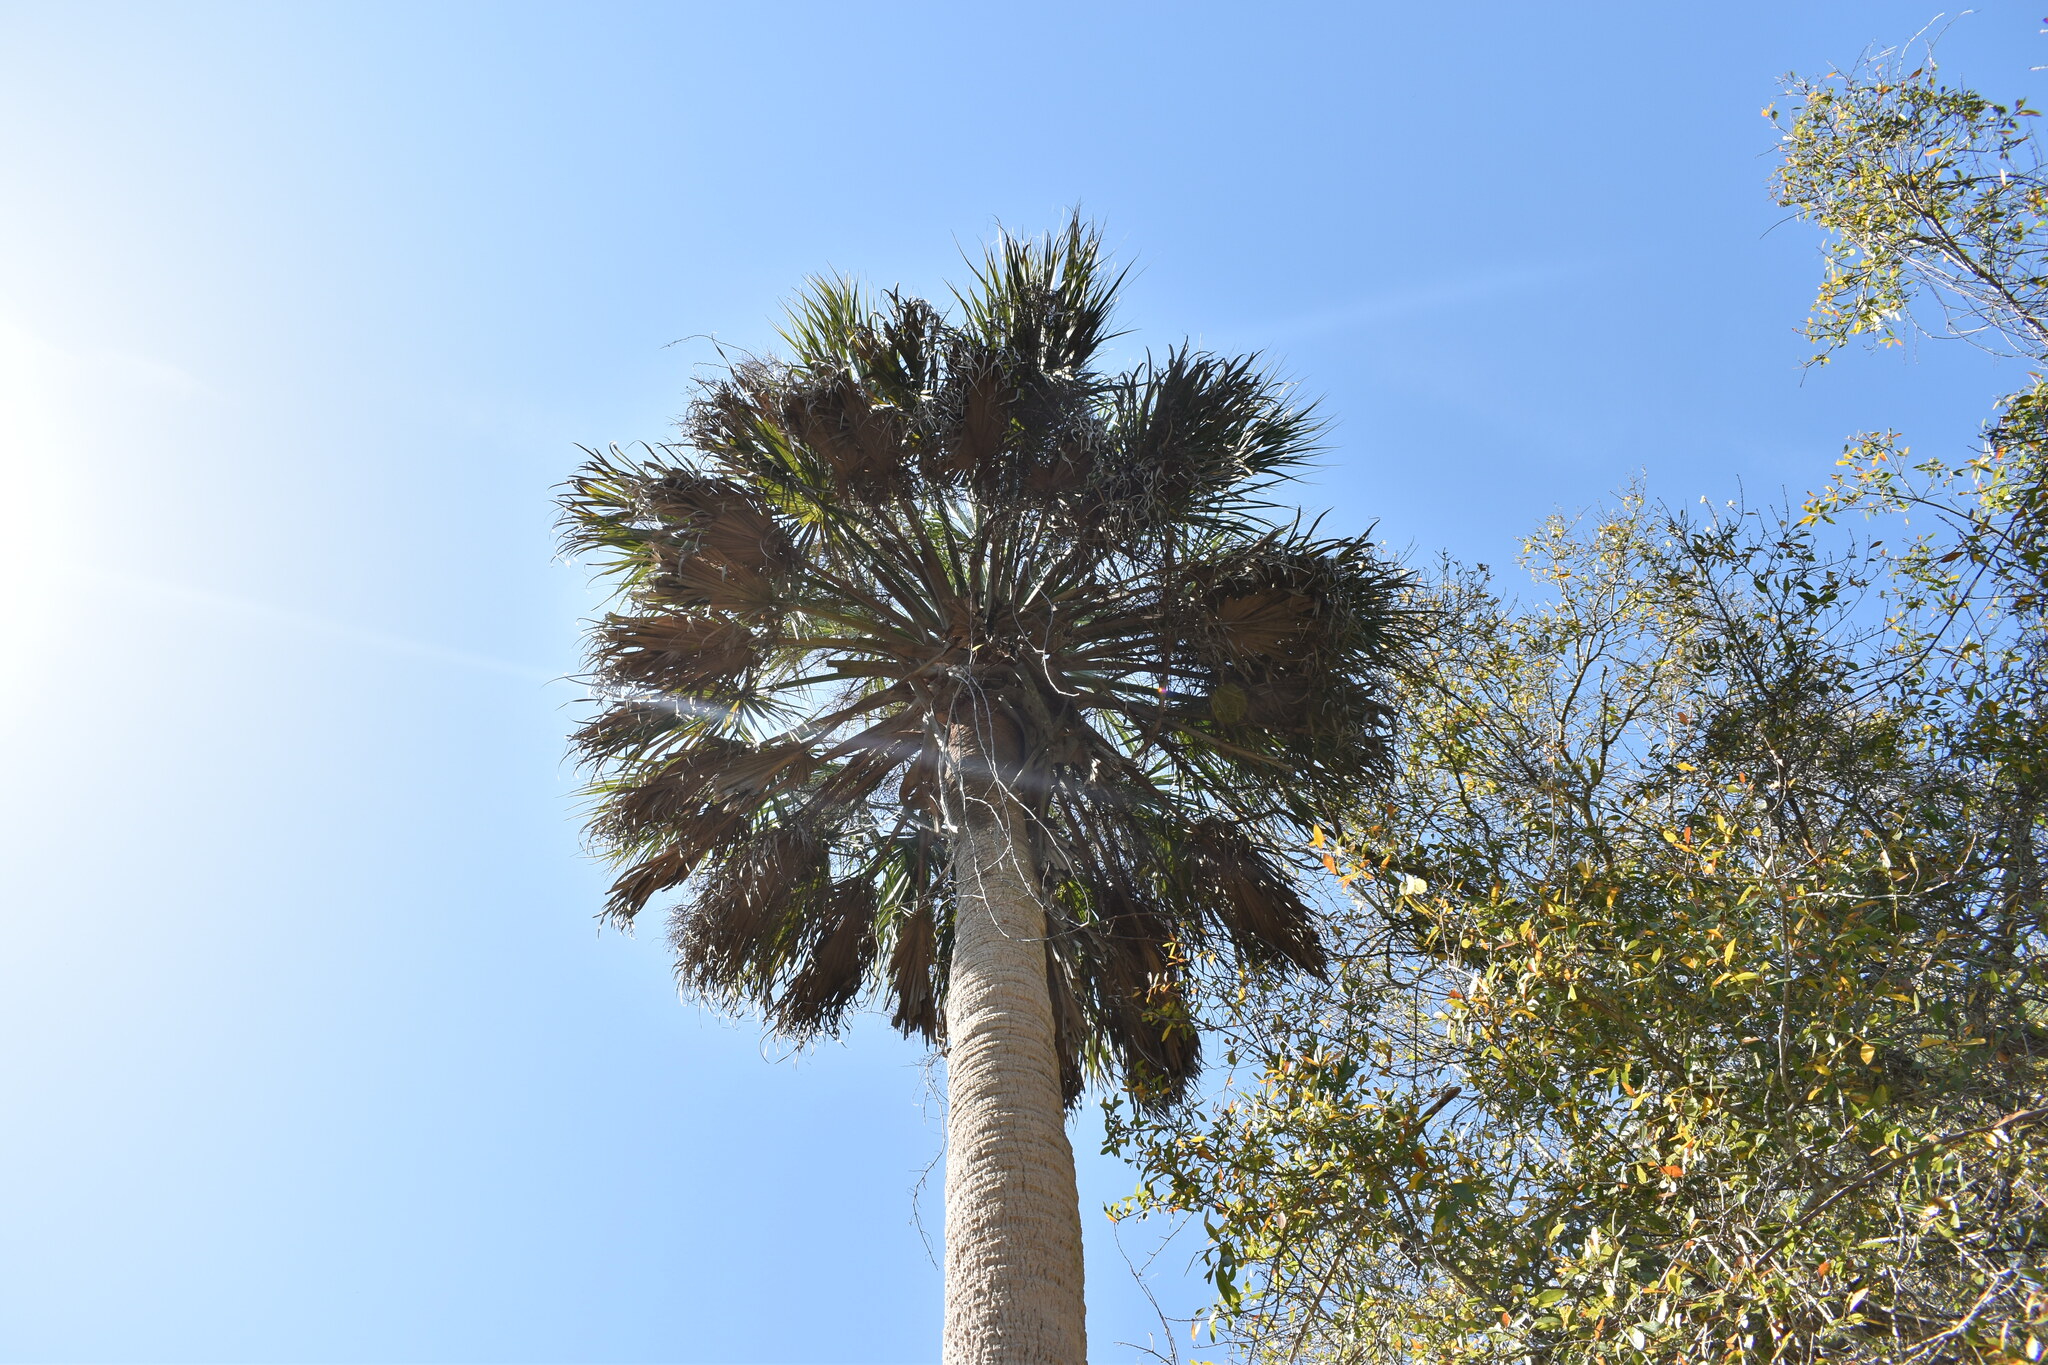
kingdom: Plantae
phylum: Tracheophyta
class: Liliopsida
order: Arecales
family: Arecaceae
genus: Sabal
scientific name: Sabal palmetto
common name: Blue palmetto
